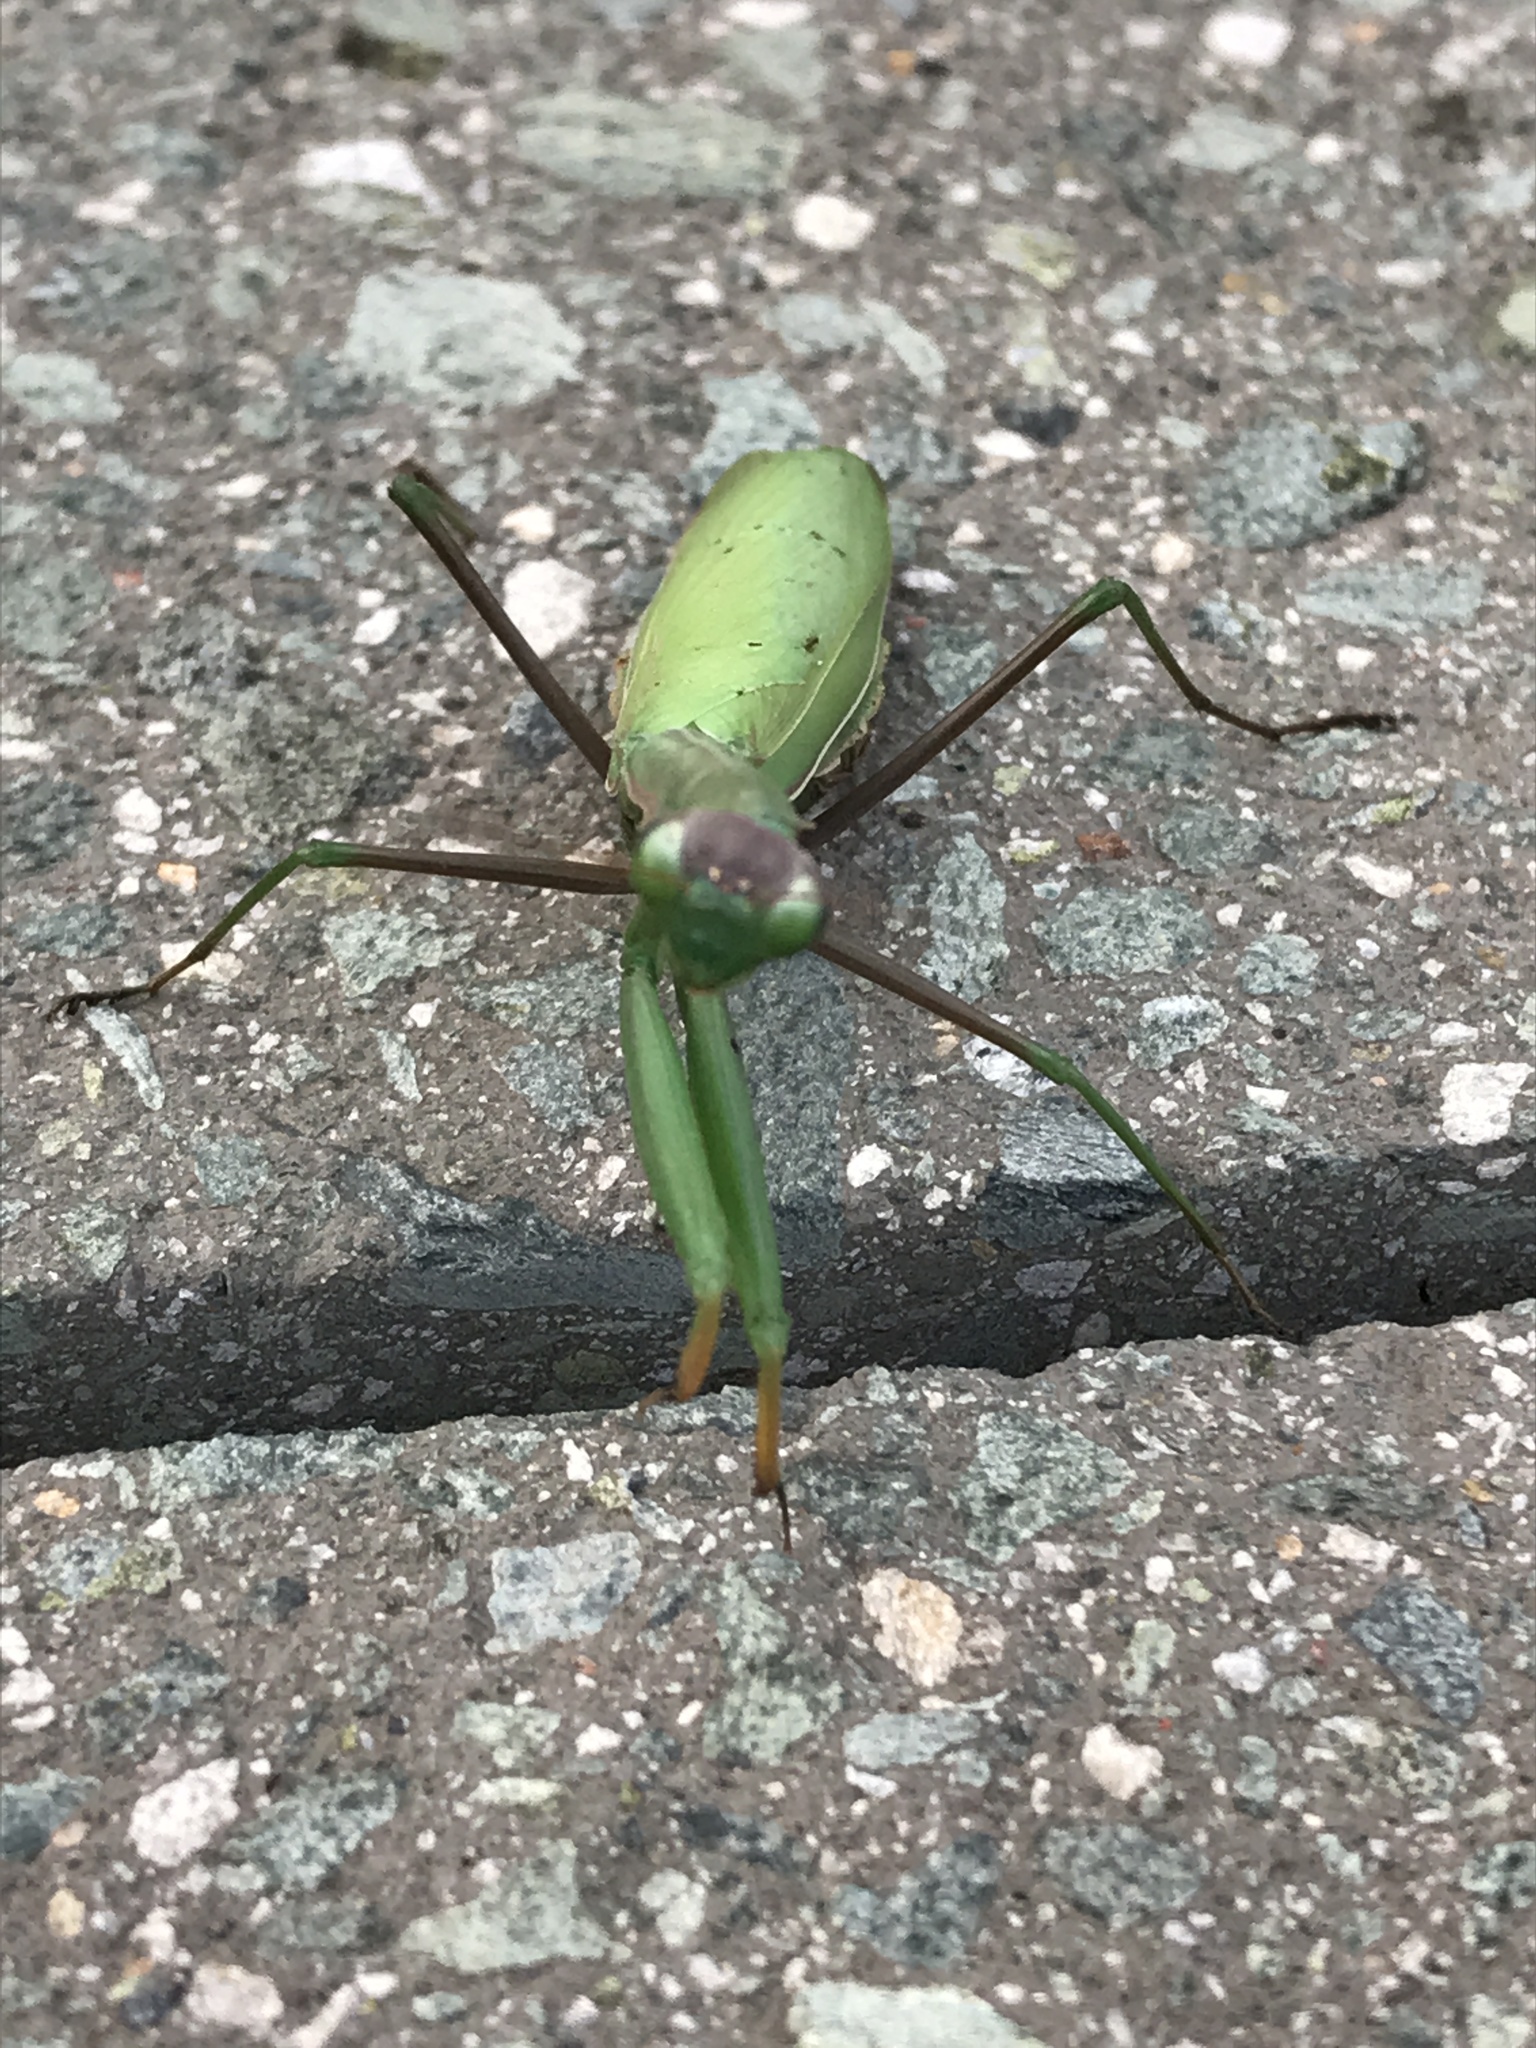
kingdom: Animalia
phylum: Arthropoda
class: Insecta
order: Mantodea
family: Mantidae
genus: Mantis
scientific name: Mantis religiosa
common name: Praying mantis
